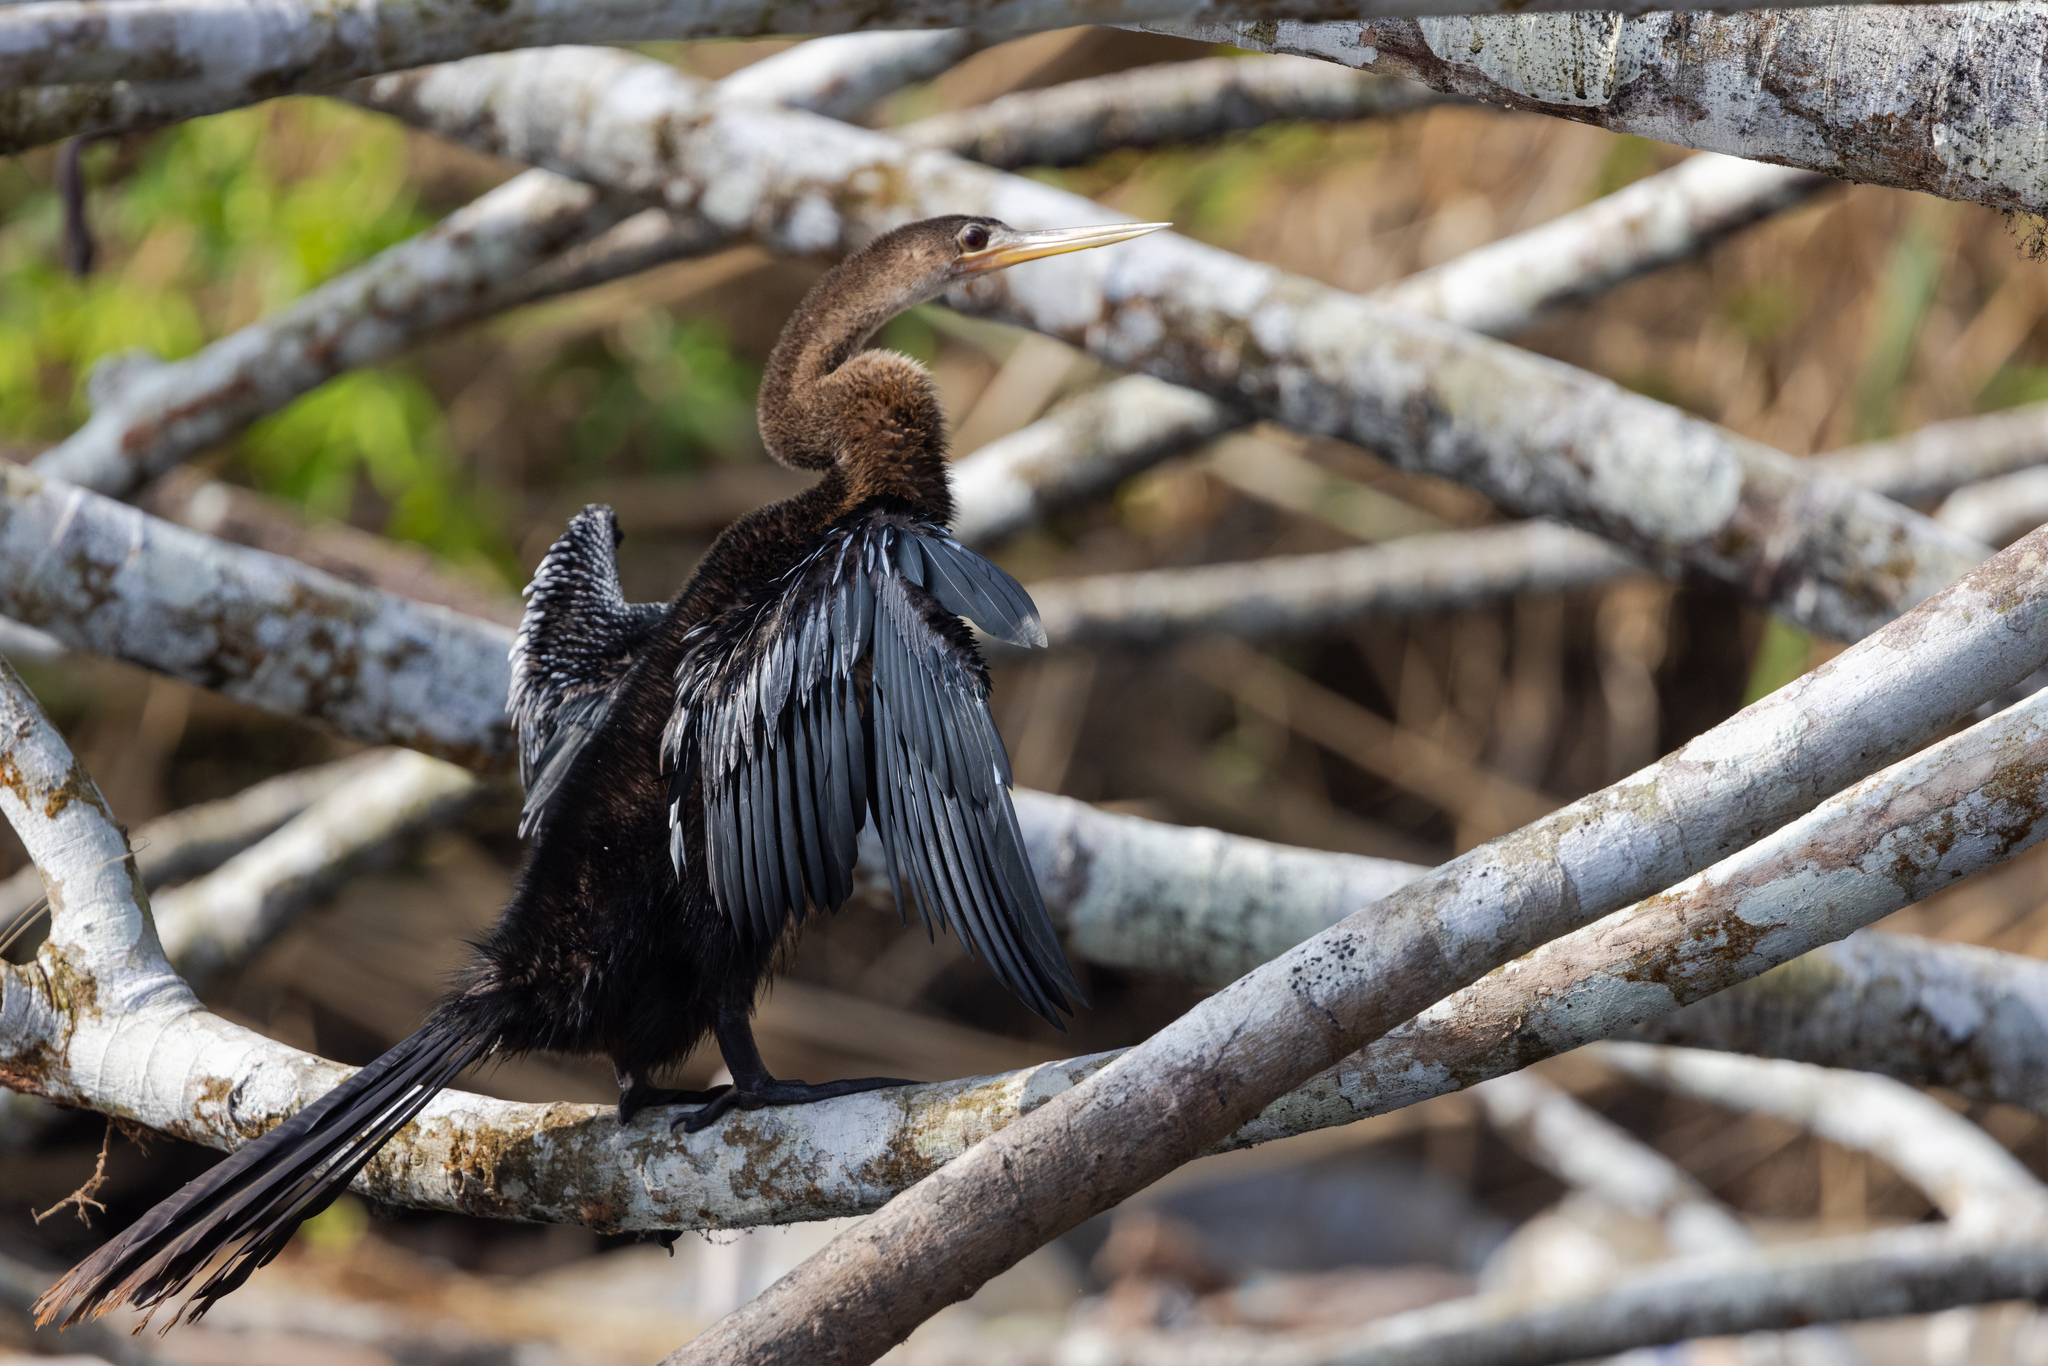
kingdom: Animalia
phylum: Chordata
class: Aves
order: Suliformes
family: Anhingidae
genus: Anhinga
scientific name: Anhinga anhinga
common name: Anhinga
